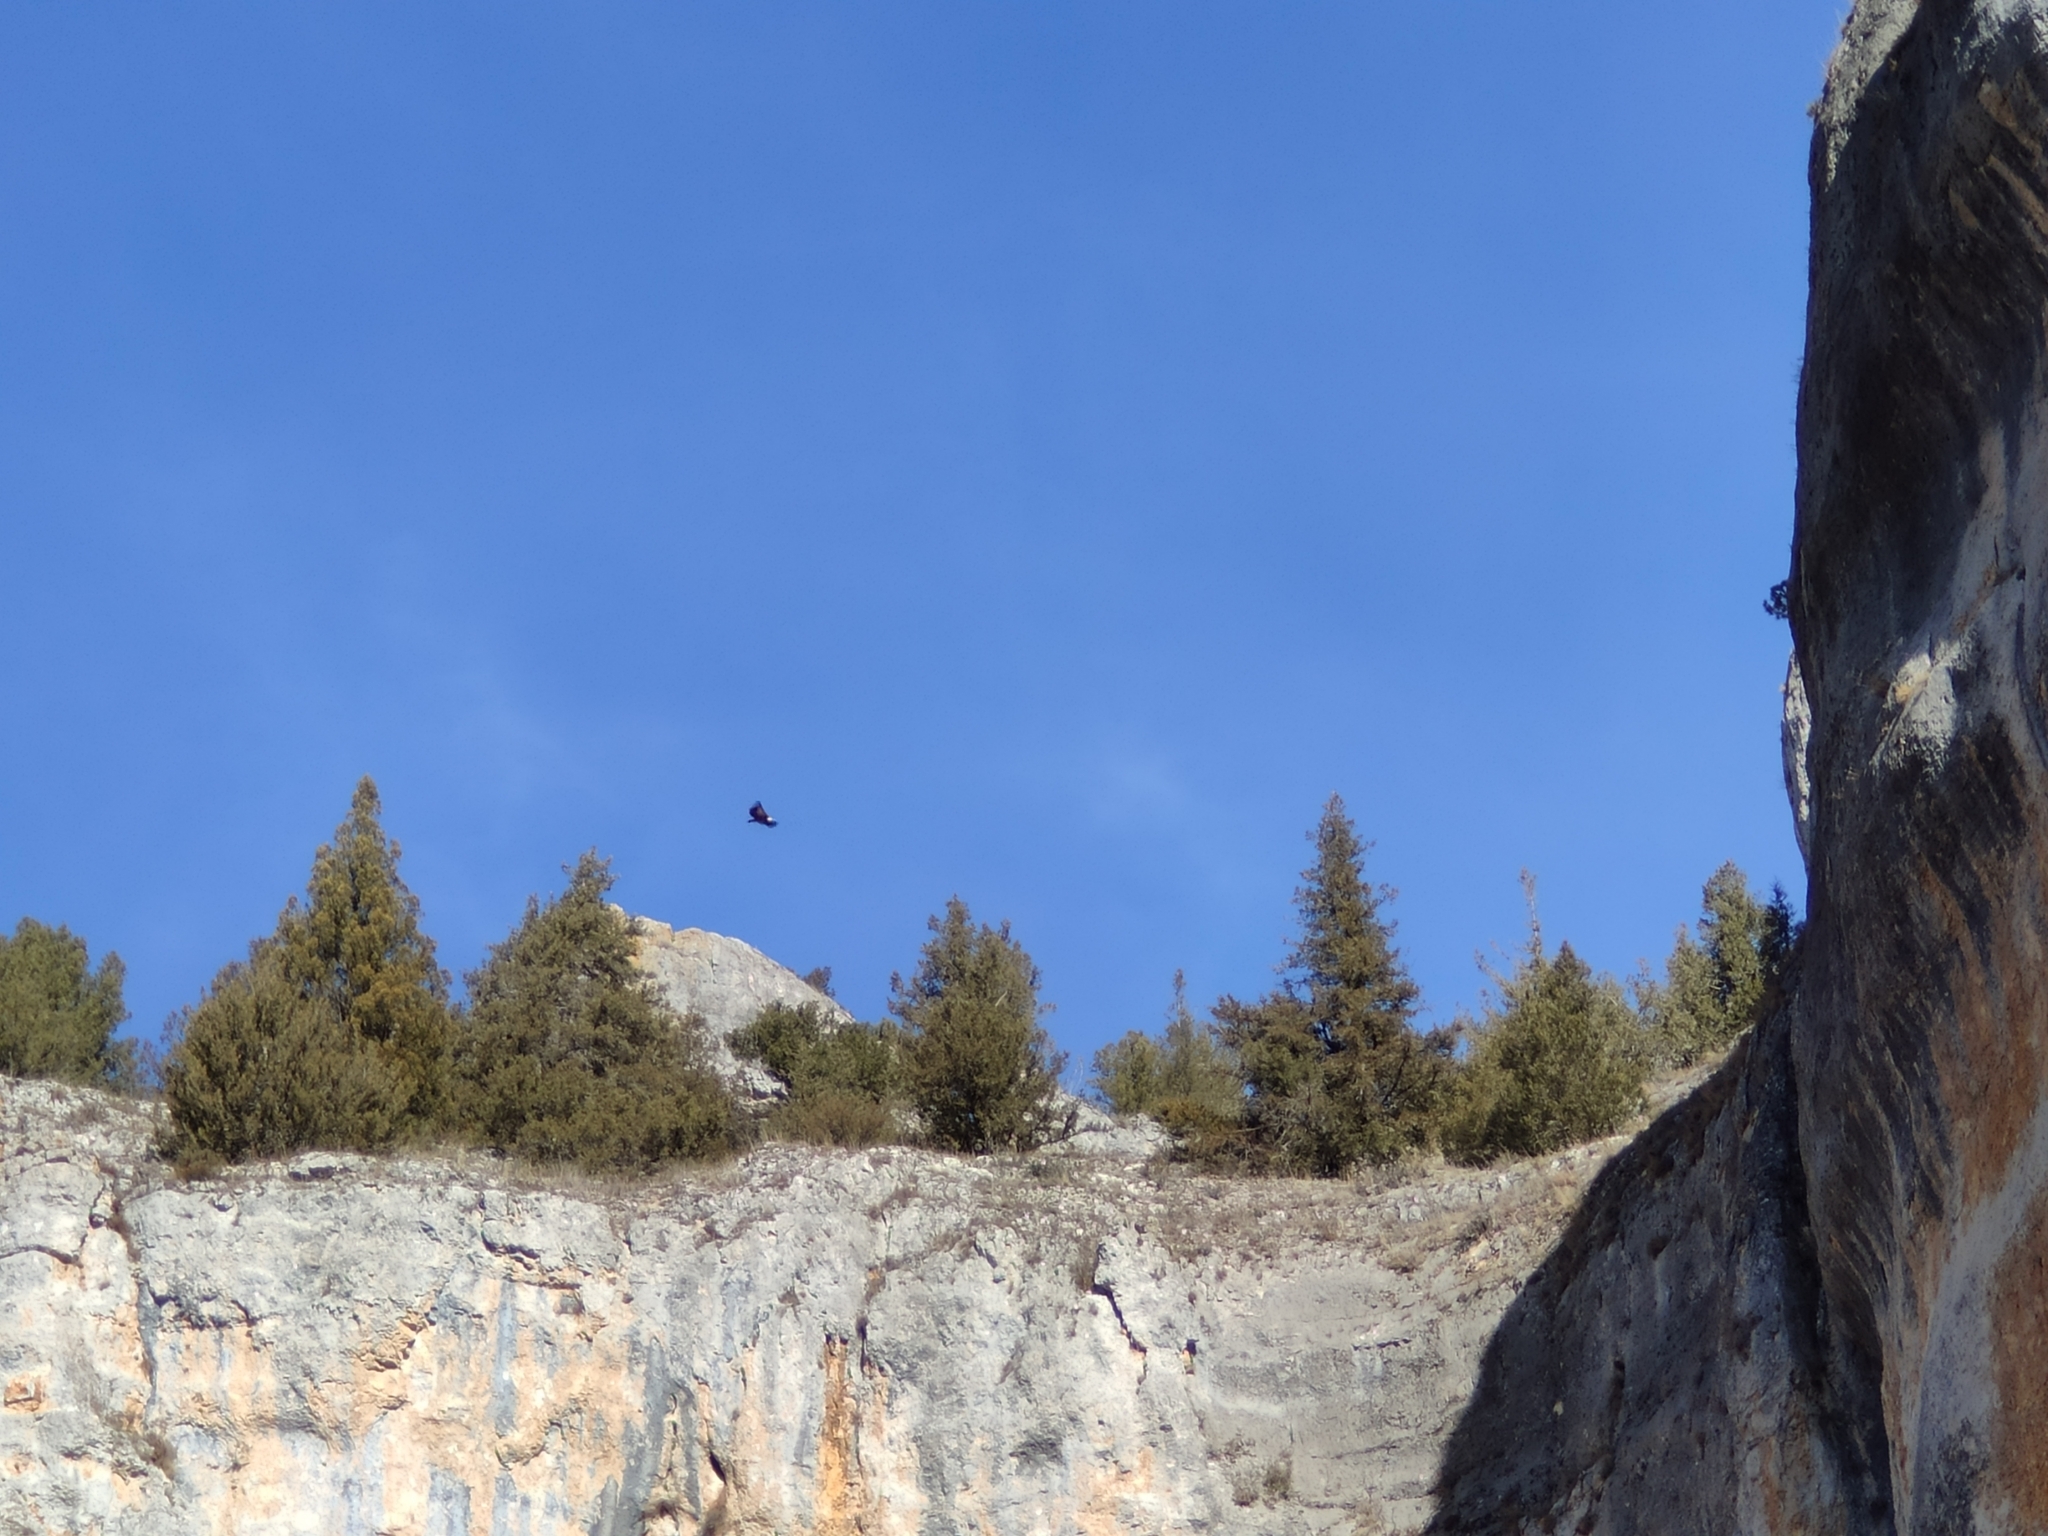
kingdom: Animalia
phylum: Chordata
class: Aves
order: Accipitriformes
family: Accipitridae
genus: Gyps
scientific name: Gyps fulvus
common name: Griffon vulture
